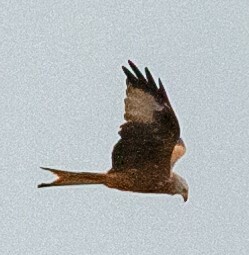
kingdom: Animalia
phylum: Chordata
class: Aves
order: Accipitriformes
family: Accipitridae
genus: Milvus
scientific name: Milvus milvus
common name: Red kite
